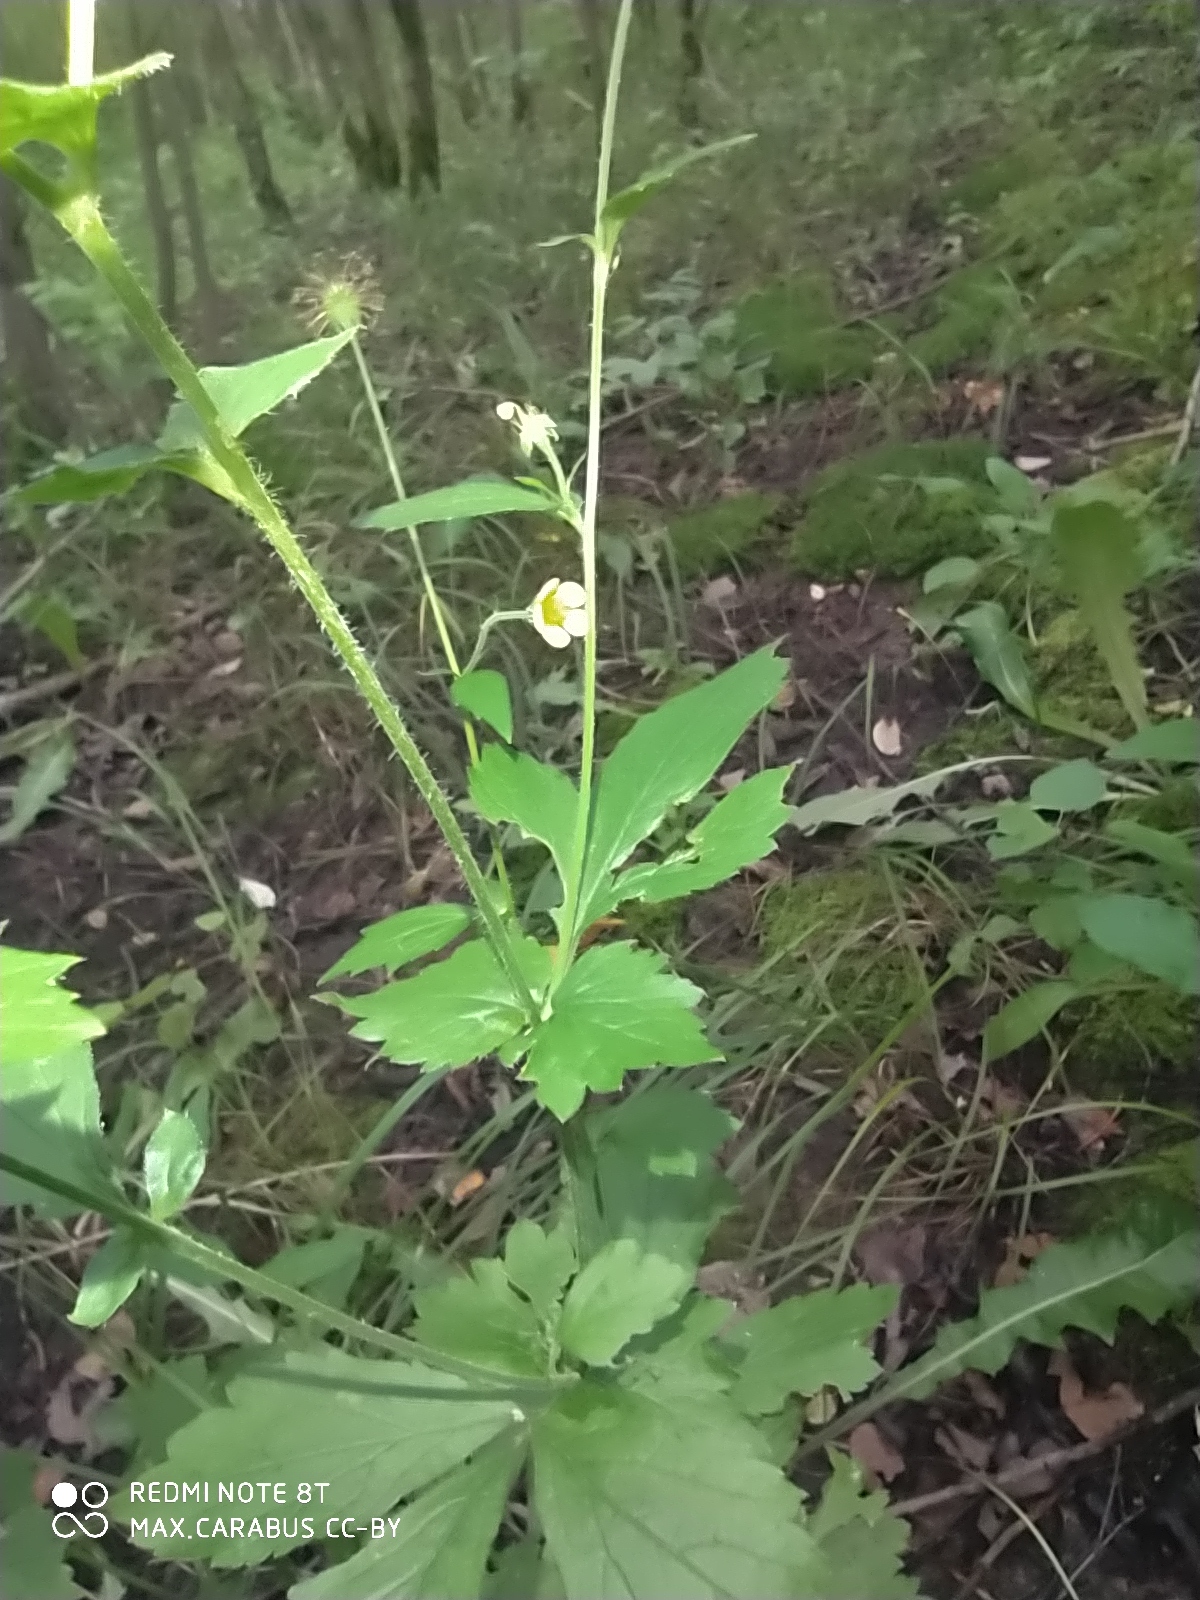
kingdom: Plantae
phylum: Tracheophyta
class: Magnoliopsida
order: Rosales
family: Rosaceae
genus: Geum
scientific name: Geum urbanum
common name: Wood avens
